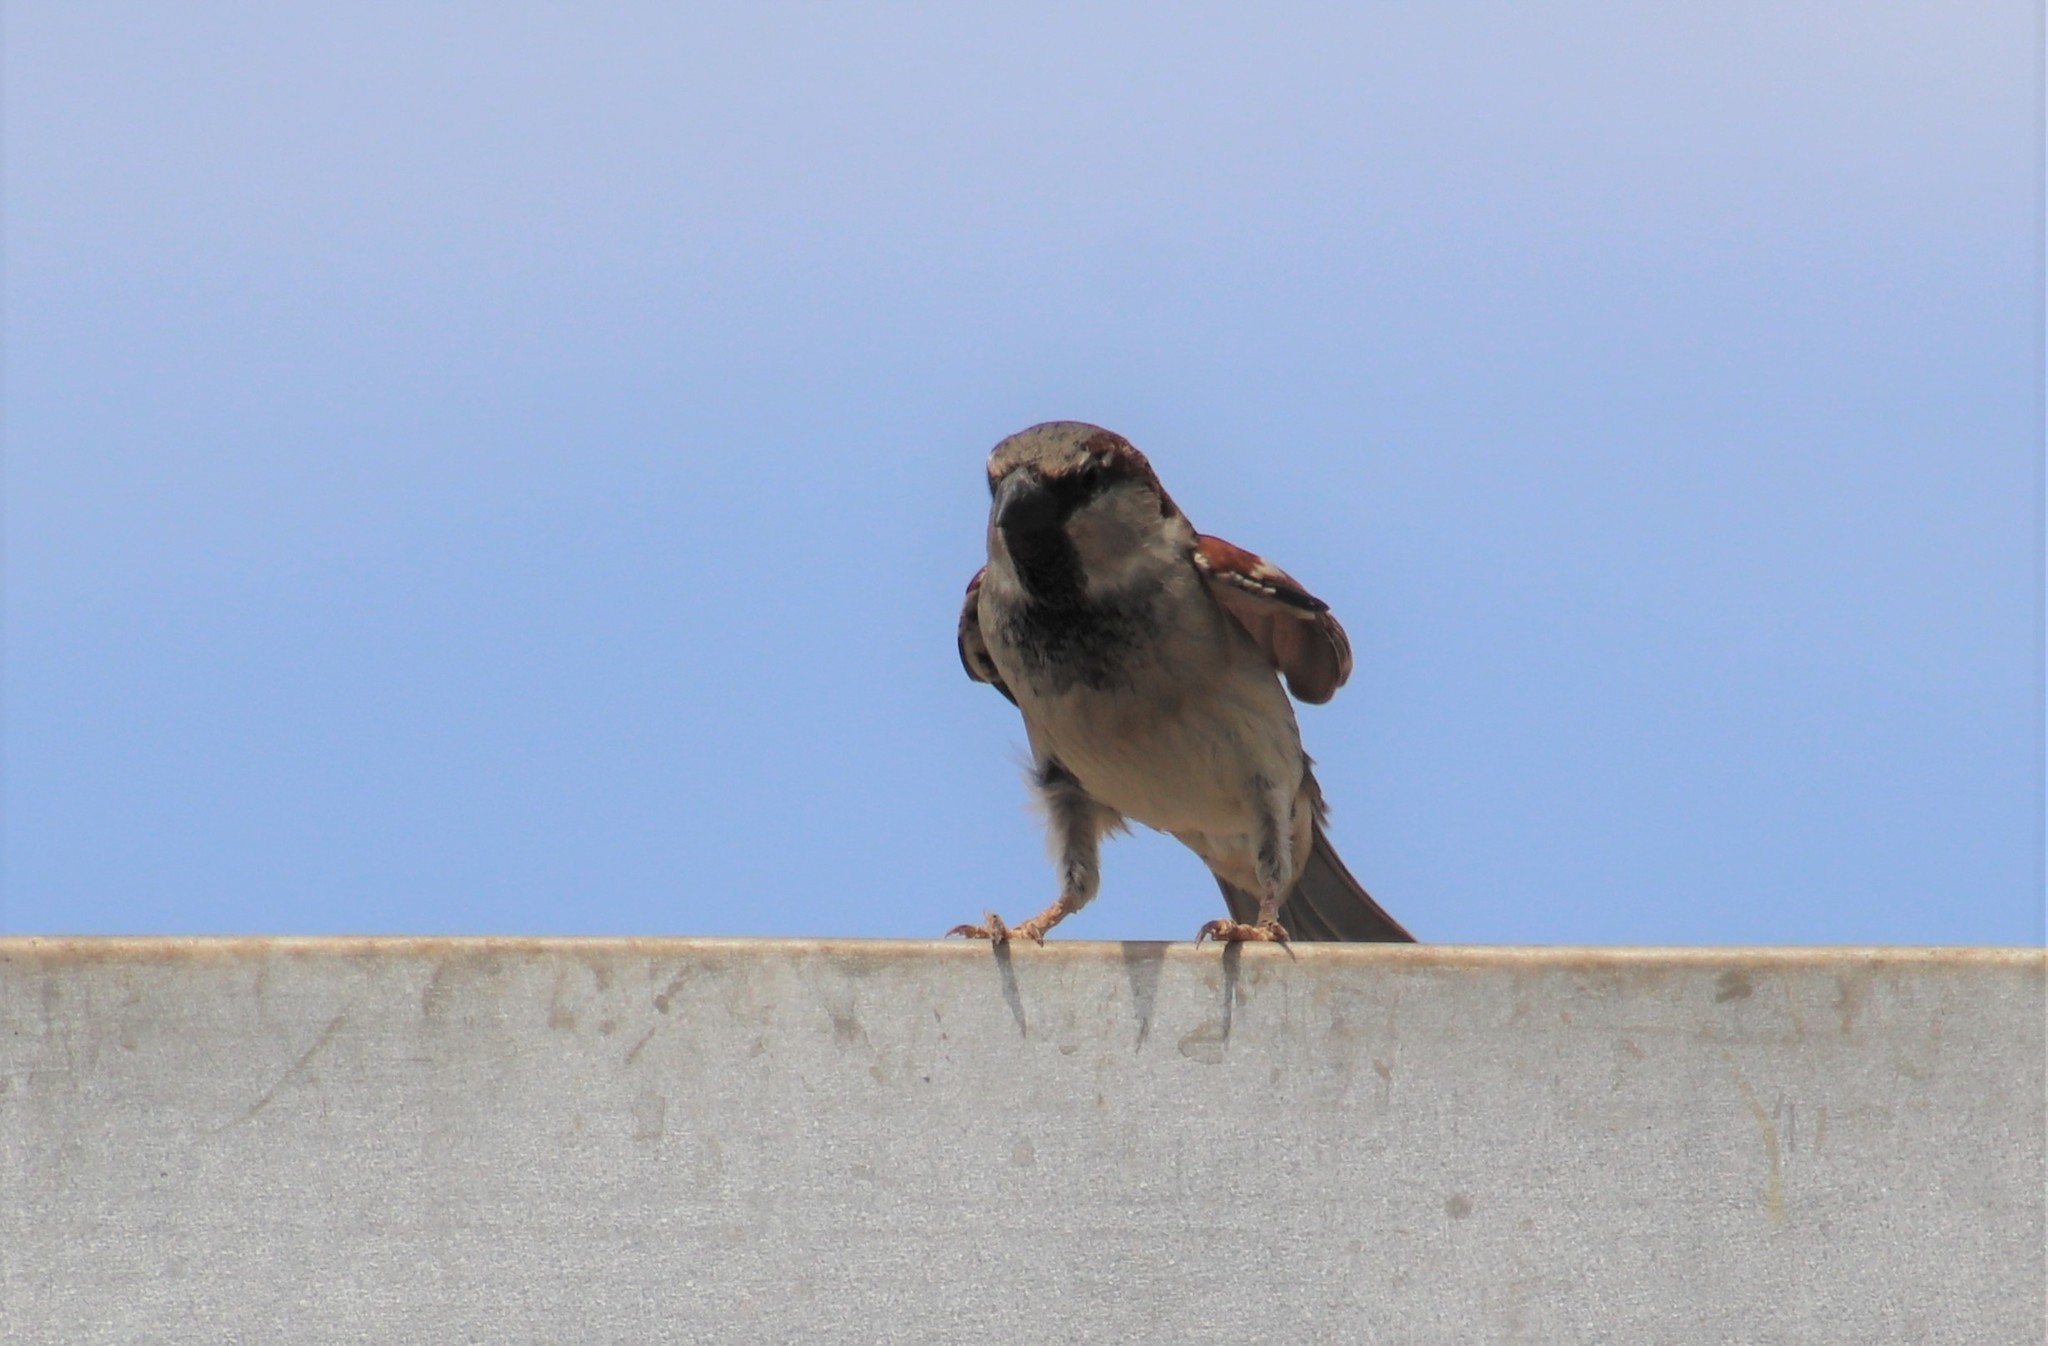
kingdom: Animalia
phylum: Chordata
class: Aves
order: Passeriformes
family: Passeridae
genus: Passer
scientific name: Passer domesticus
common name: House sparrow
